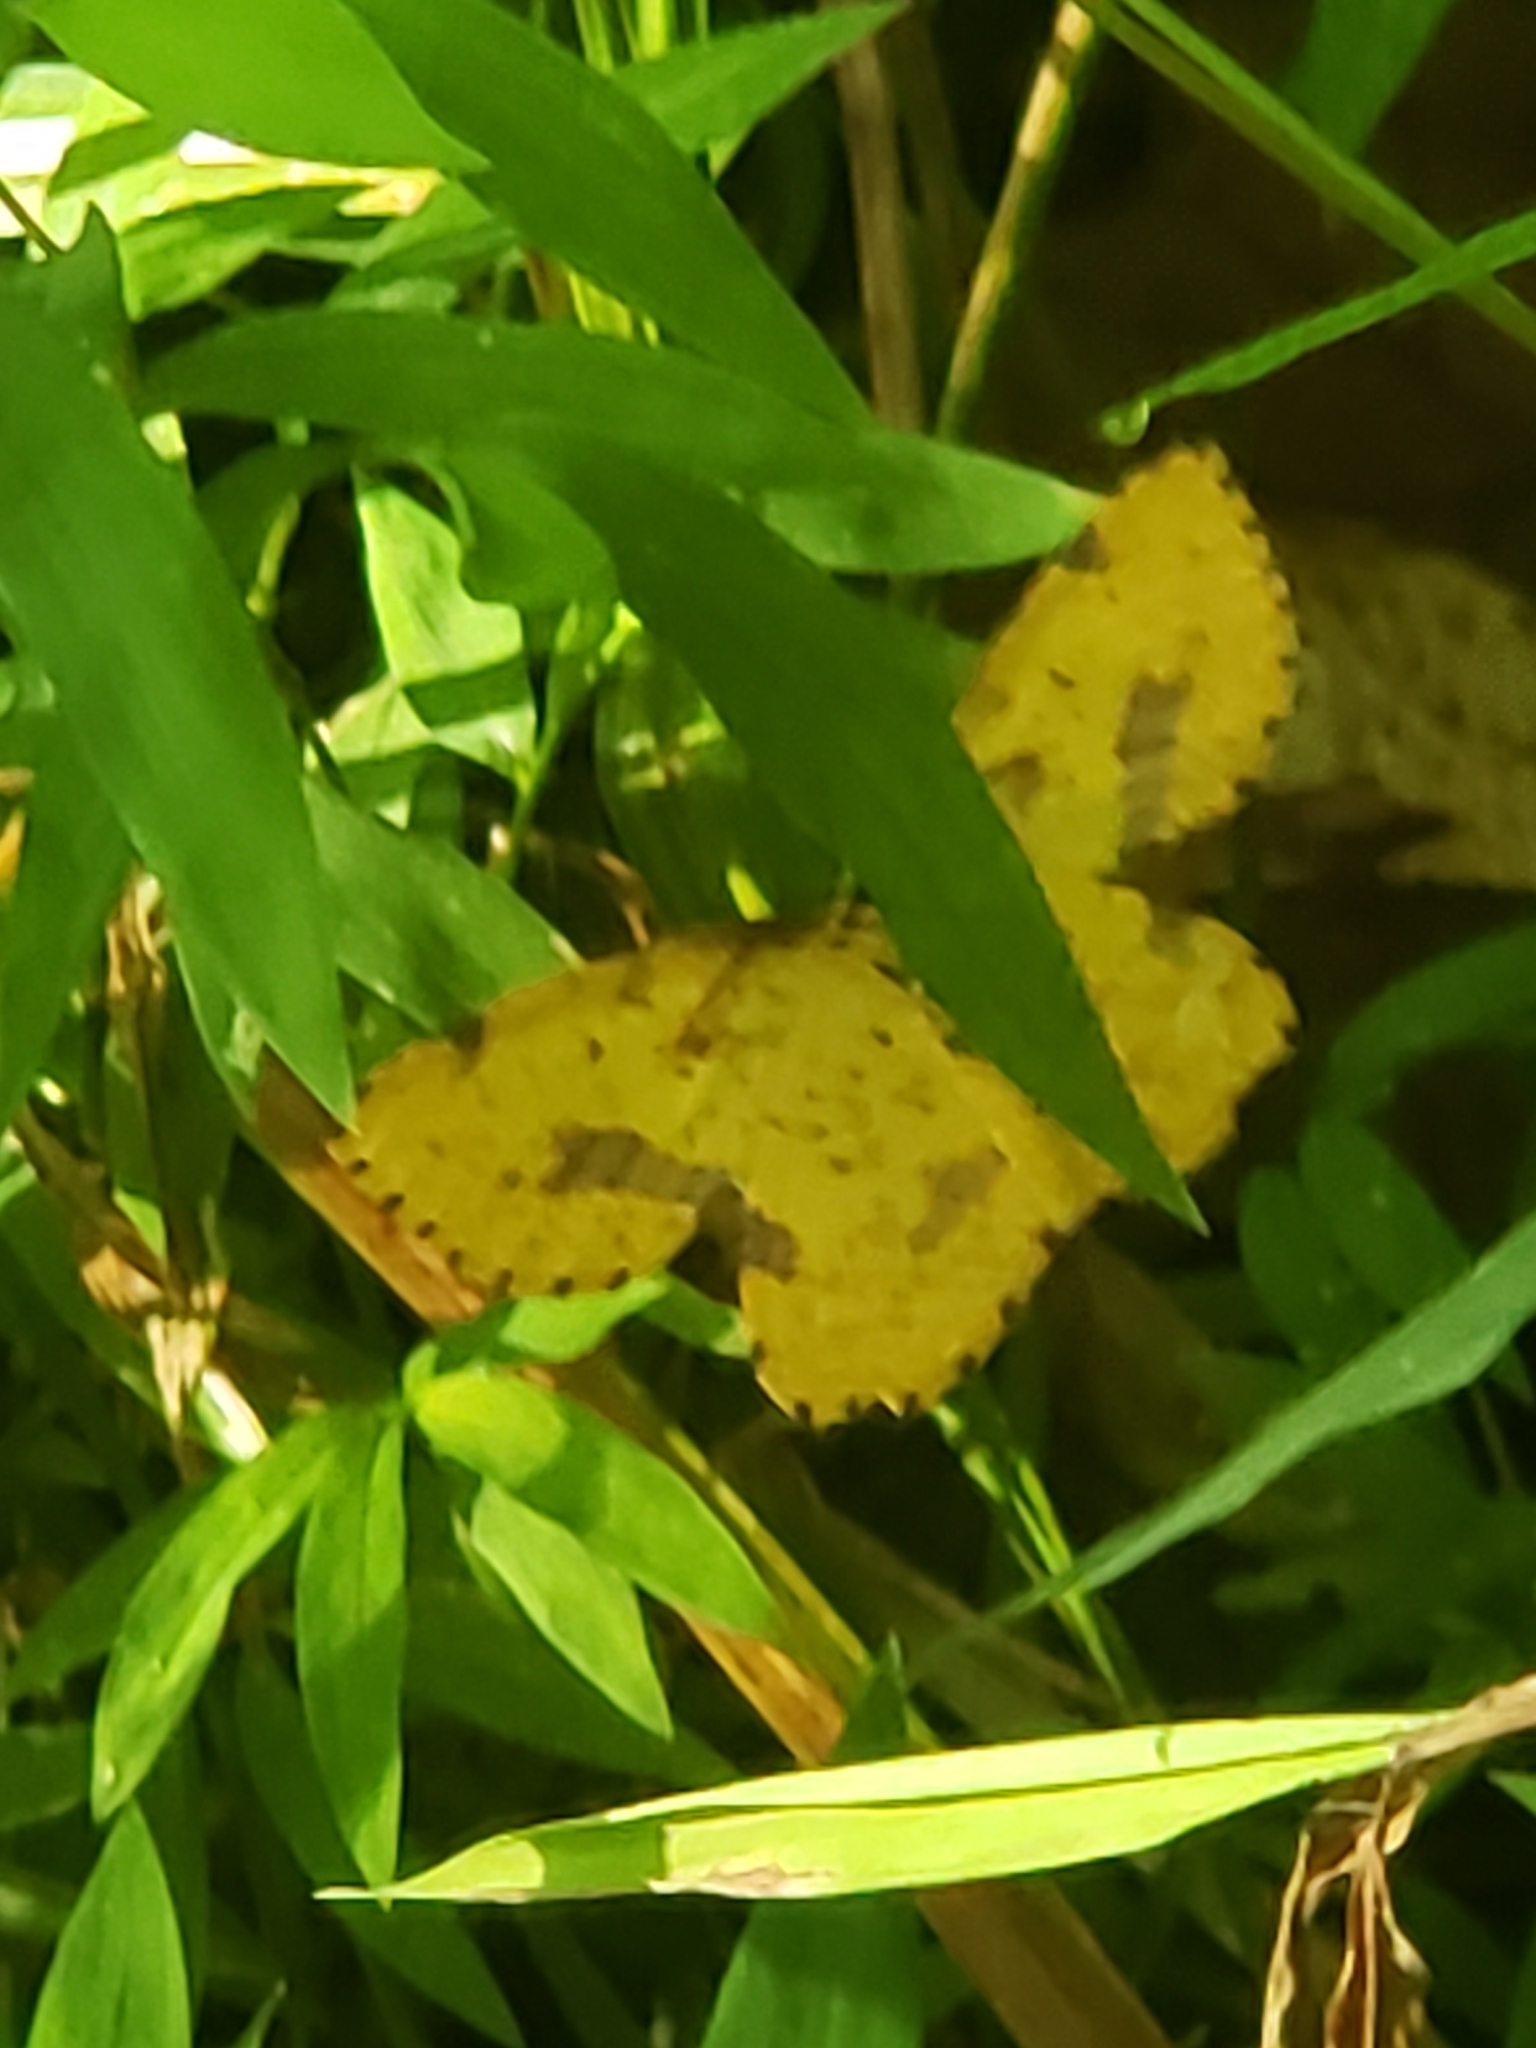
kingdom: Animalia
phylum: Arthropoda
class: Insecta
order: Lepidoptera
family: Geometridae
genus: Xanthotype
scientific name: Xanthotype
